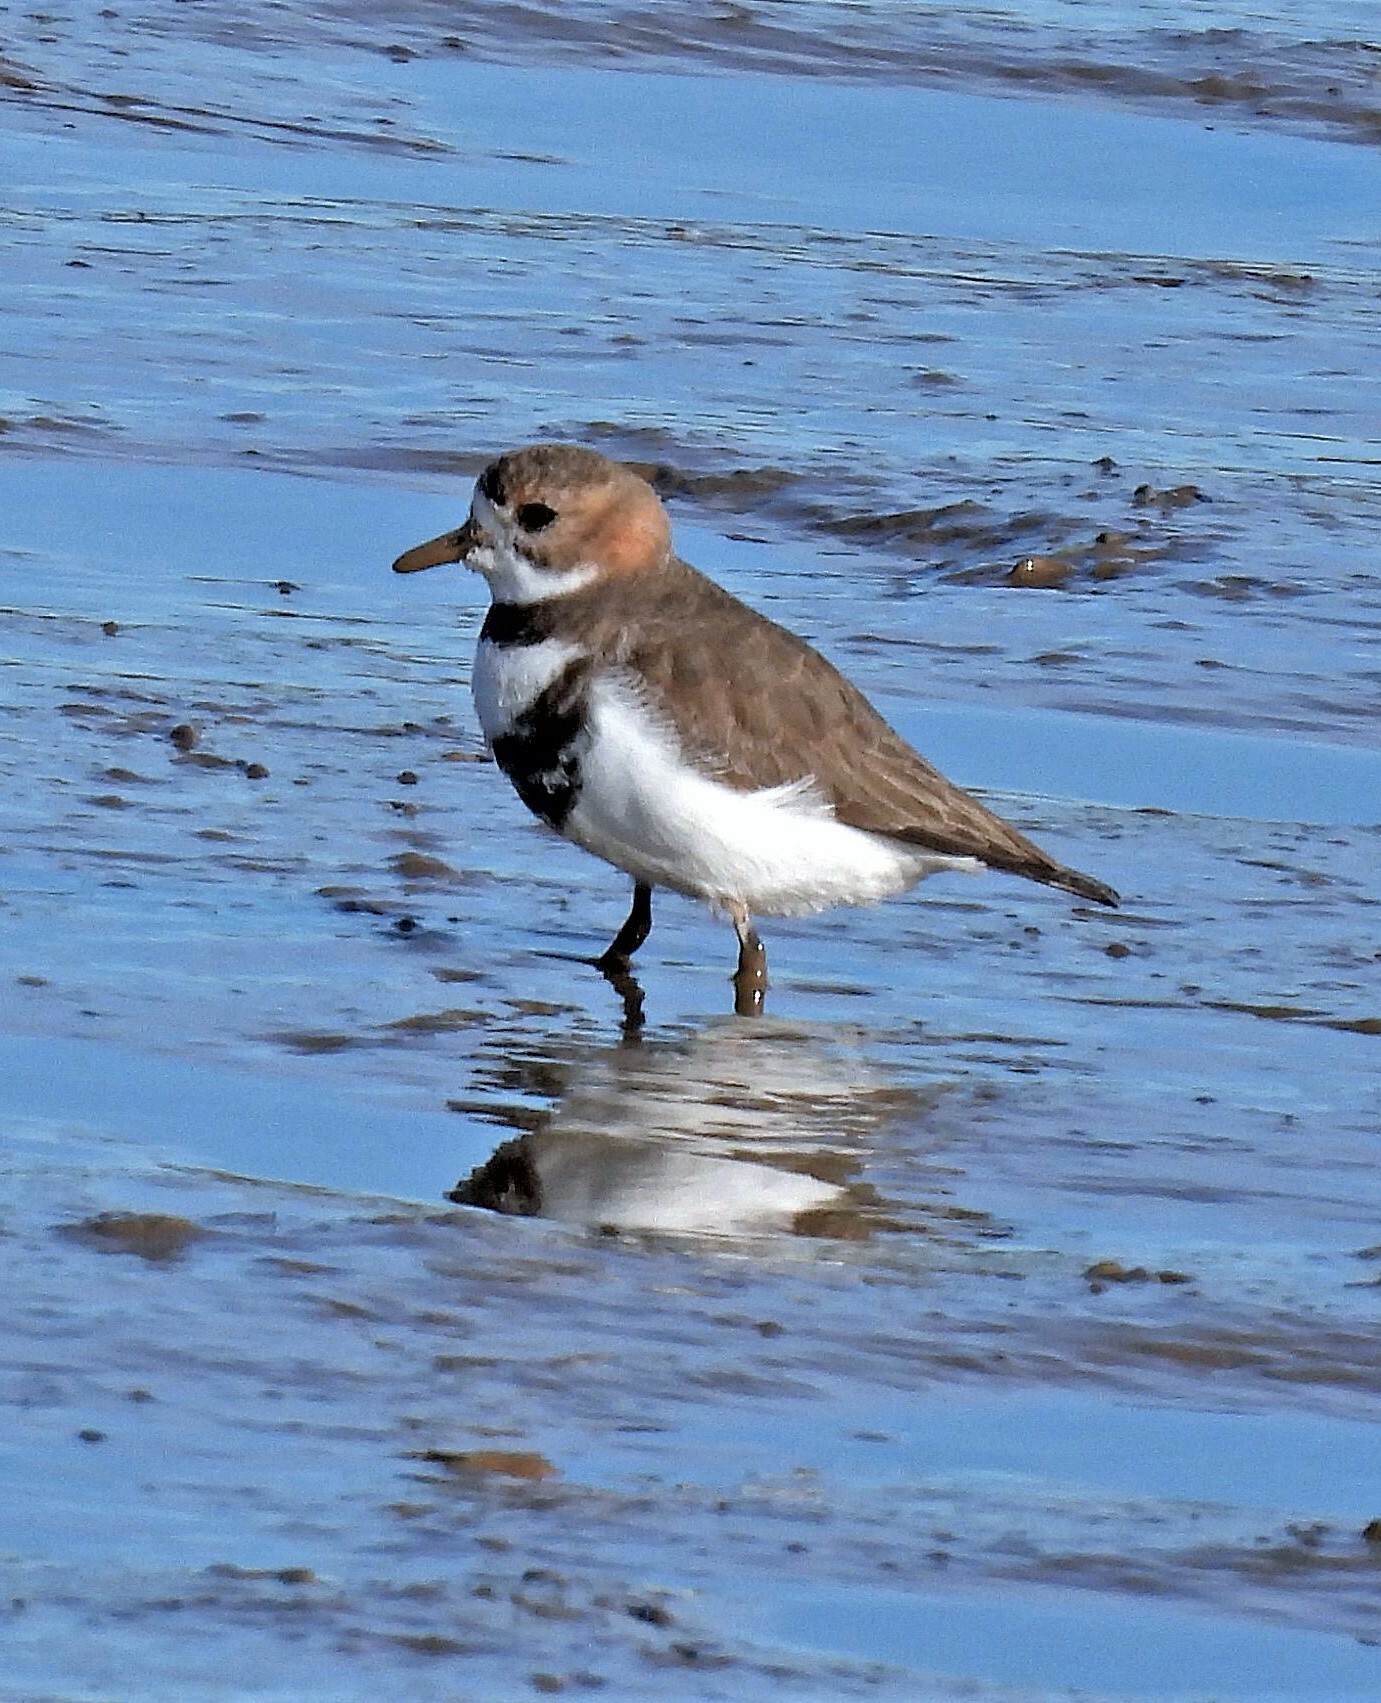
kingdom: Animalia
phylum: Chordata
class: Aves
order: Charadriiformes
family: Charadriidae
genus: Anarhynchus
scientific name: Anarhynchus
